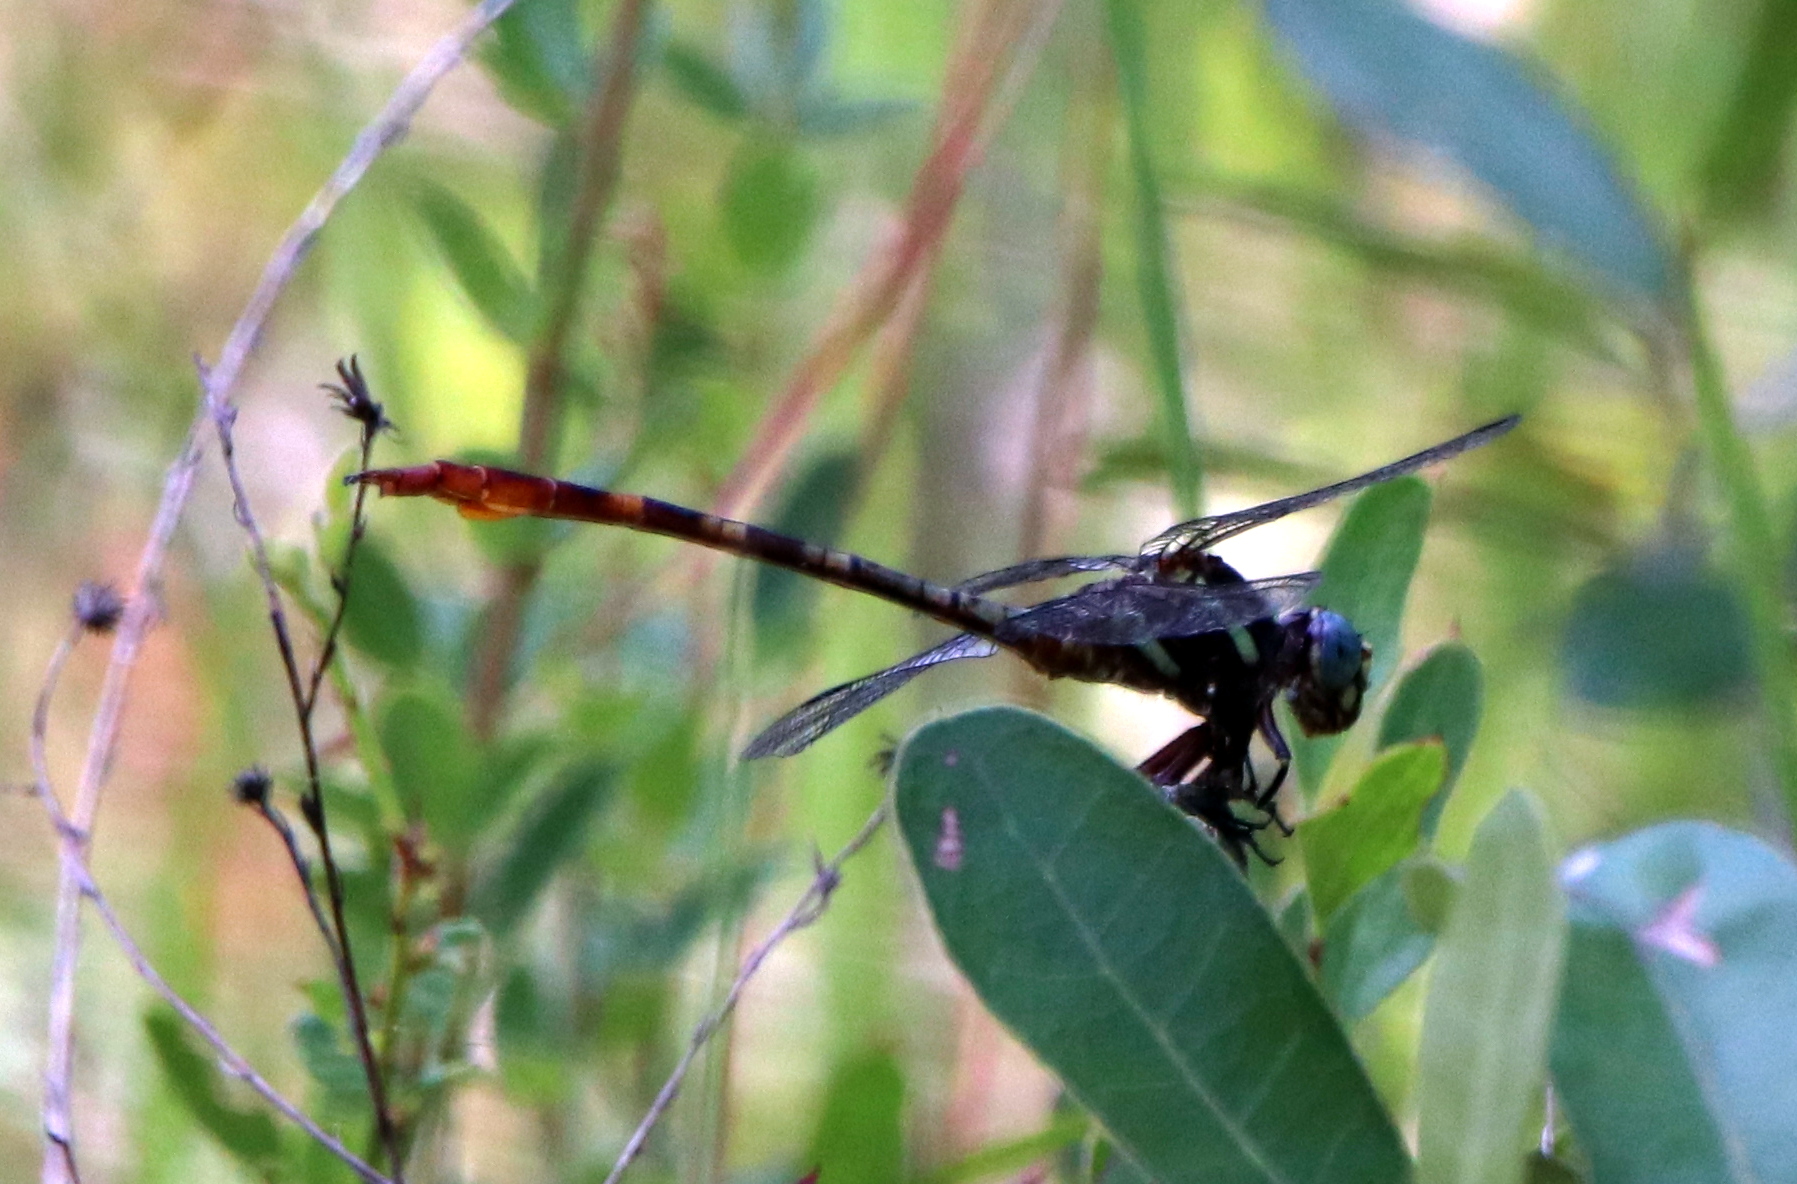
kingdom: Animalia
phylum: Arthropoda
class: Insecta
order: Odonata
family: Gomphidae
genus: Aphylla
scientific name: Aphylla williamsoni
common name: Two-striped forceptail
